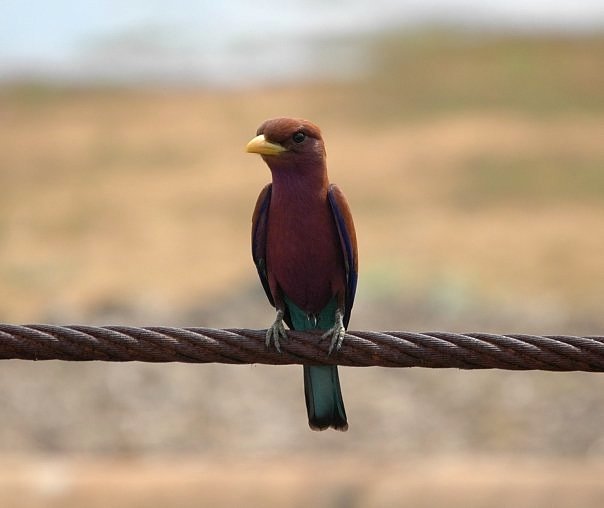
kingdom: Animalia
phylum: Chordata
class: Aves
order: Coraciiformes
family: Coraciidae
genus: Eurystomus
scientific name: Eurystomus glaucurus
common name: Broad-billed roller
